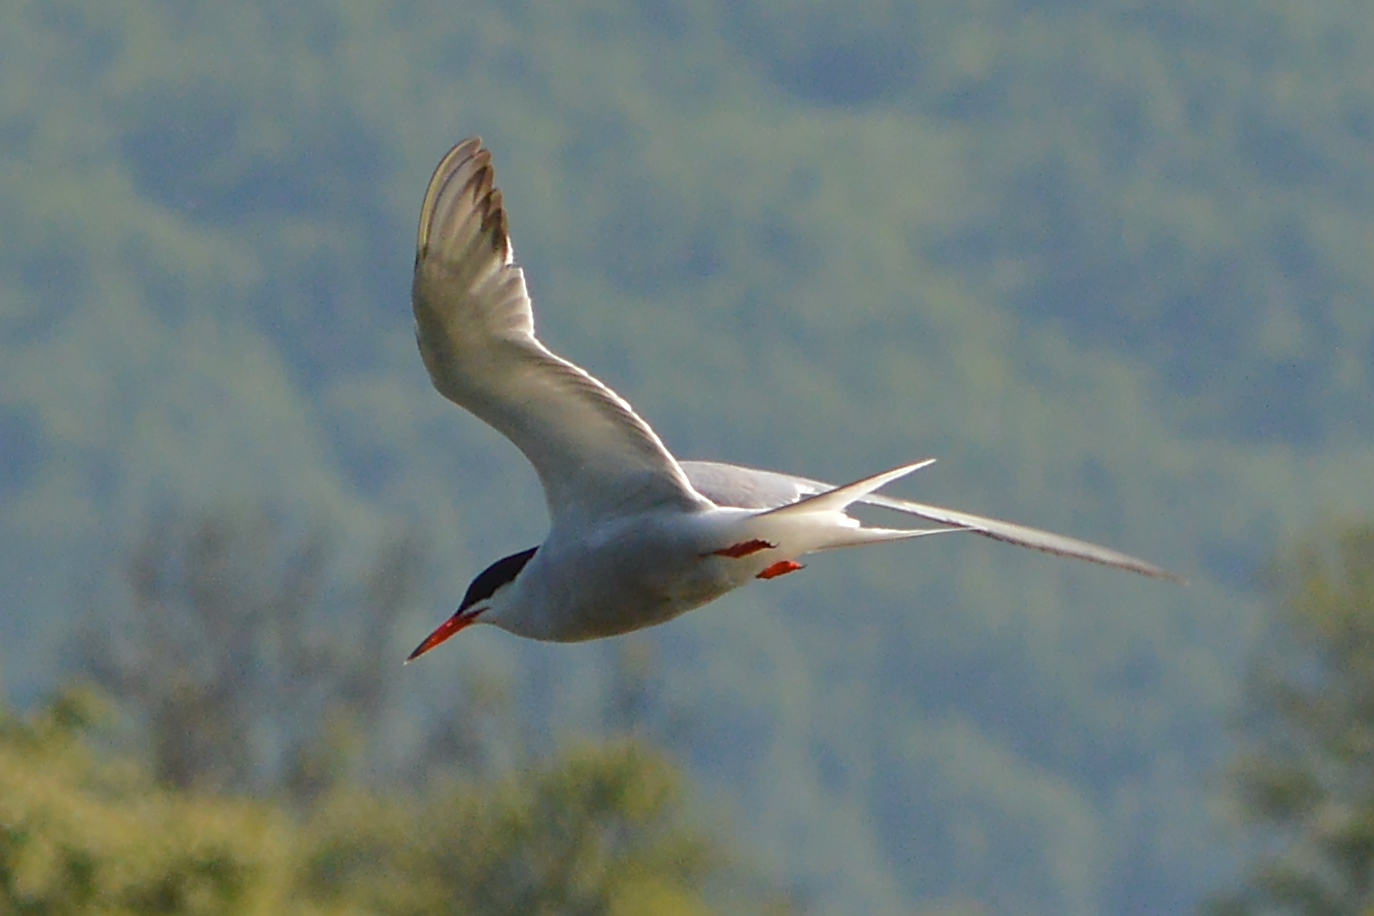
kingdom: Animalia
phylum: Chordata
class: Aves
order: Charadriiformes
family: Laridae
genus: Sterna
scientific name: Sterna hirundo
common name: Common tern
